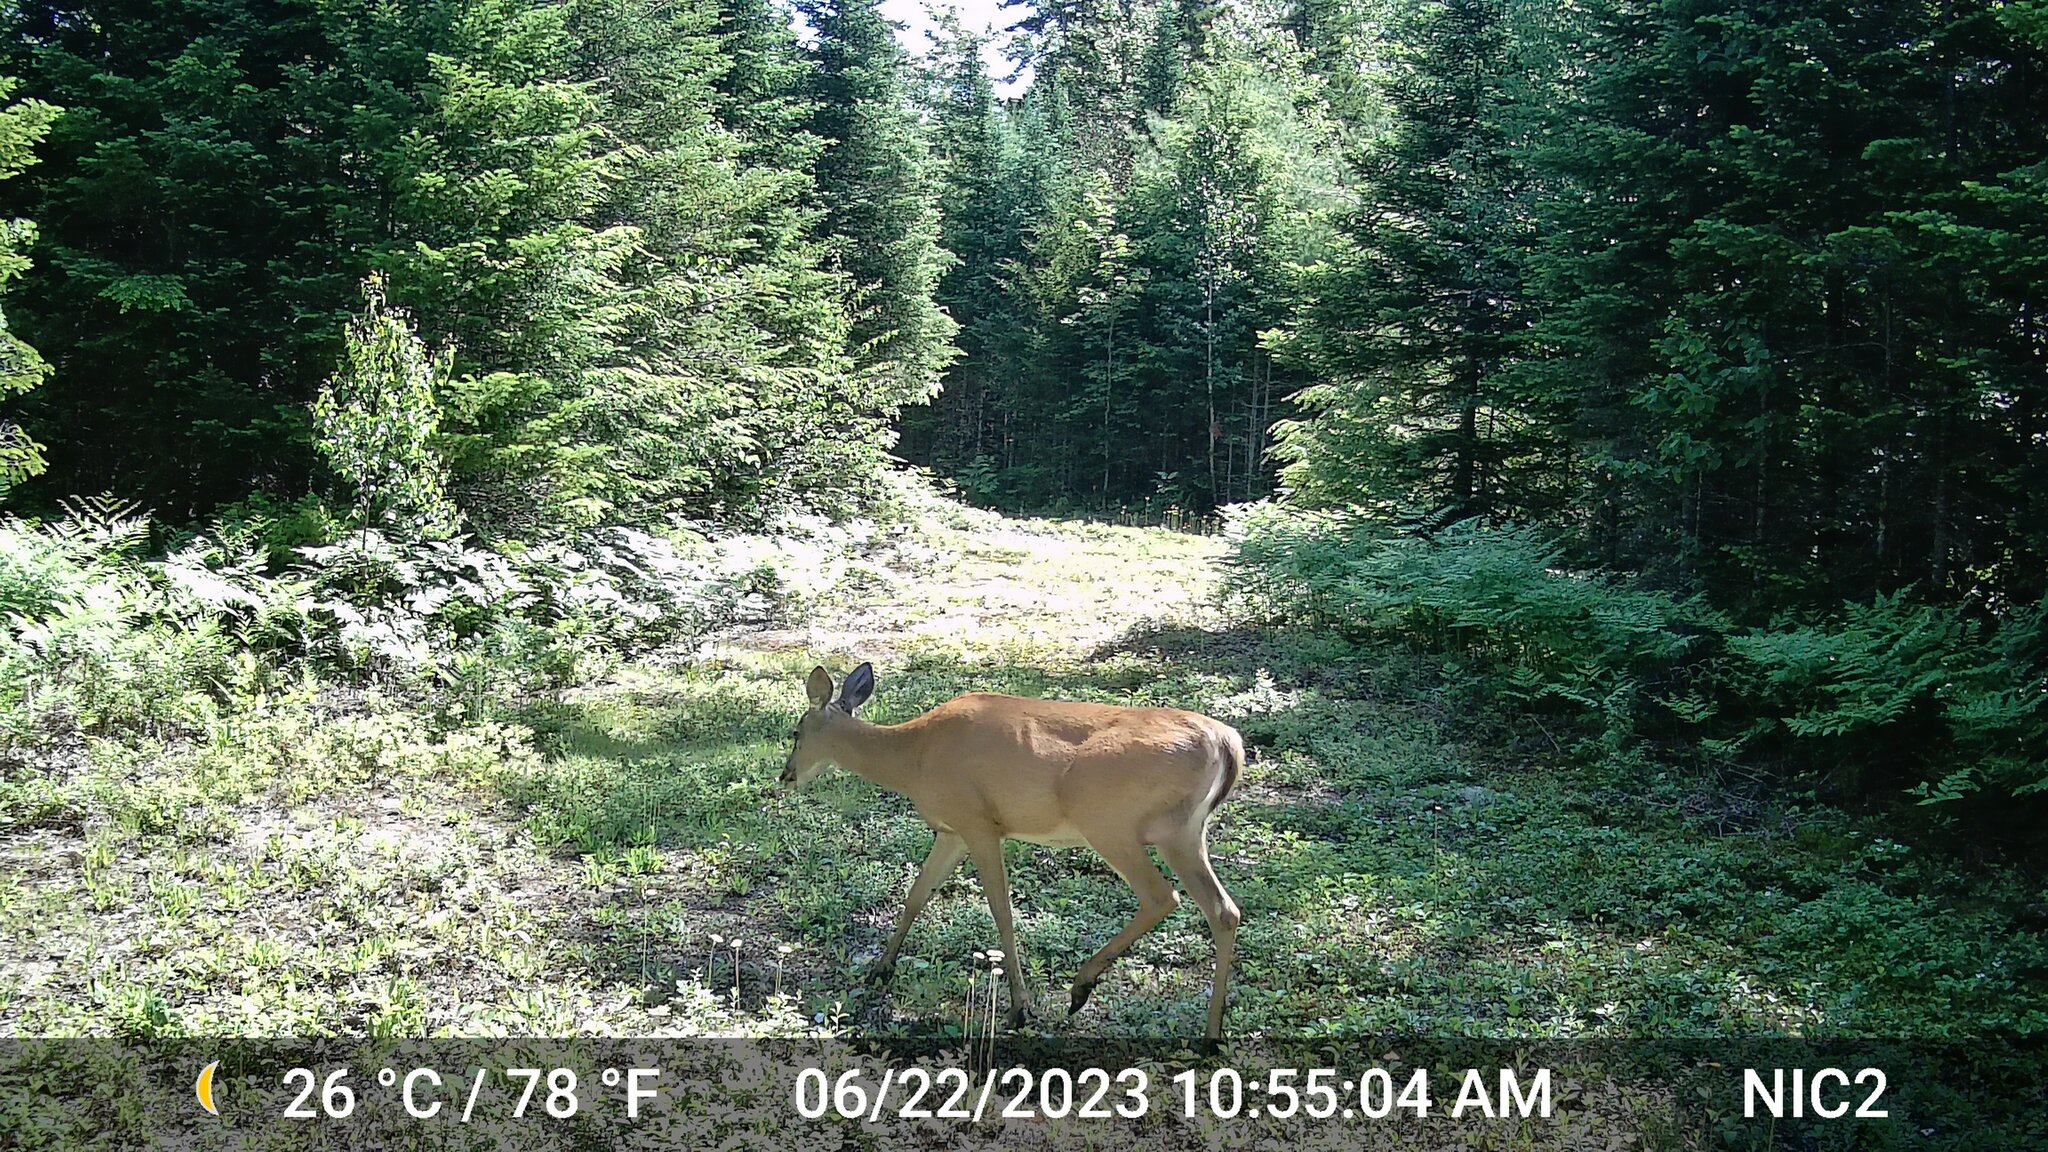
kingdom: Animalia
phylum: Chordata
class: Mammalia
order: Artiodactyla
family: Cervidae
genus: Odocoileus
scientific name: Odocoileus virginianus
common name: White-tailed deer
